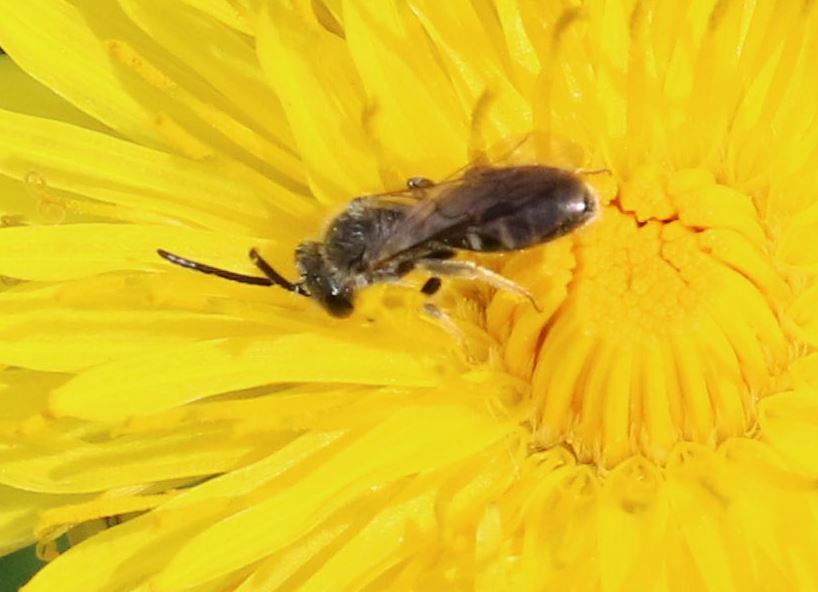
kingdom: Animalia
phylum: Arthropoda
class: Insecta
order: Hymenoptera
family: Halictidae
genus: Lasioglossum
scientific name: Lasioglossum pallens
